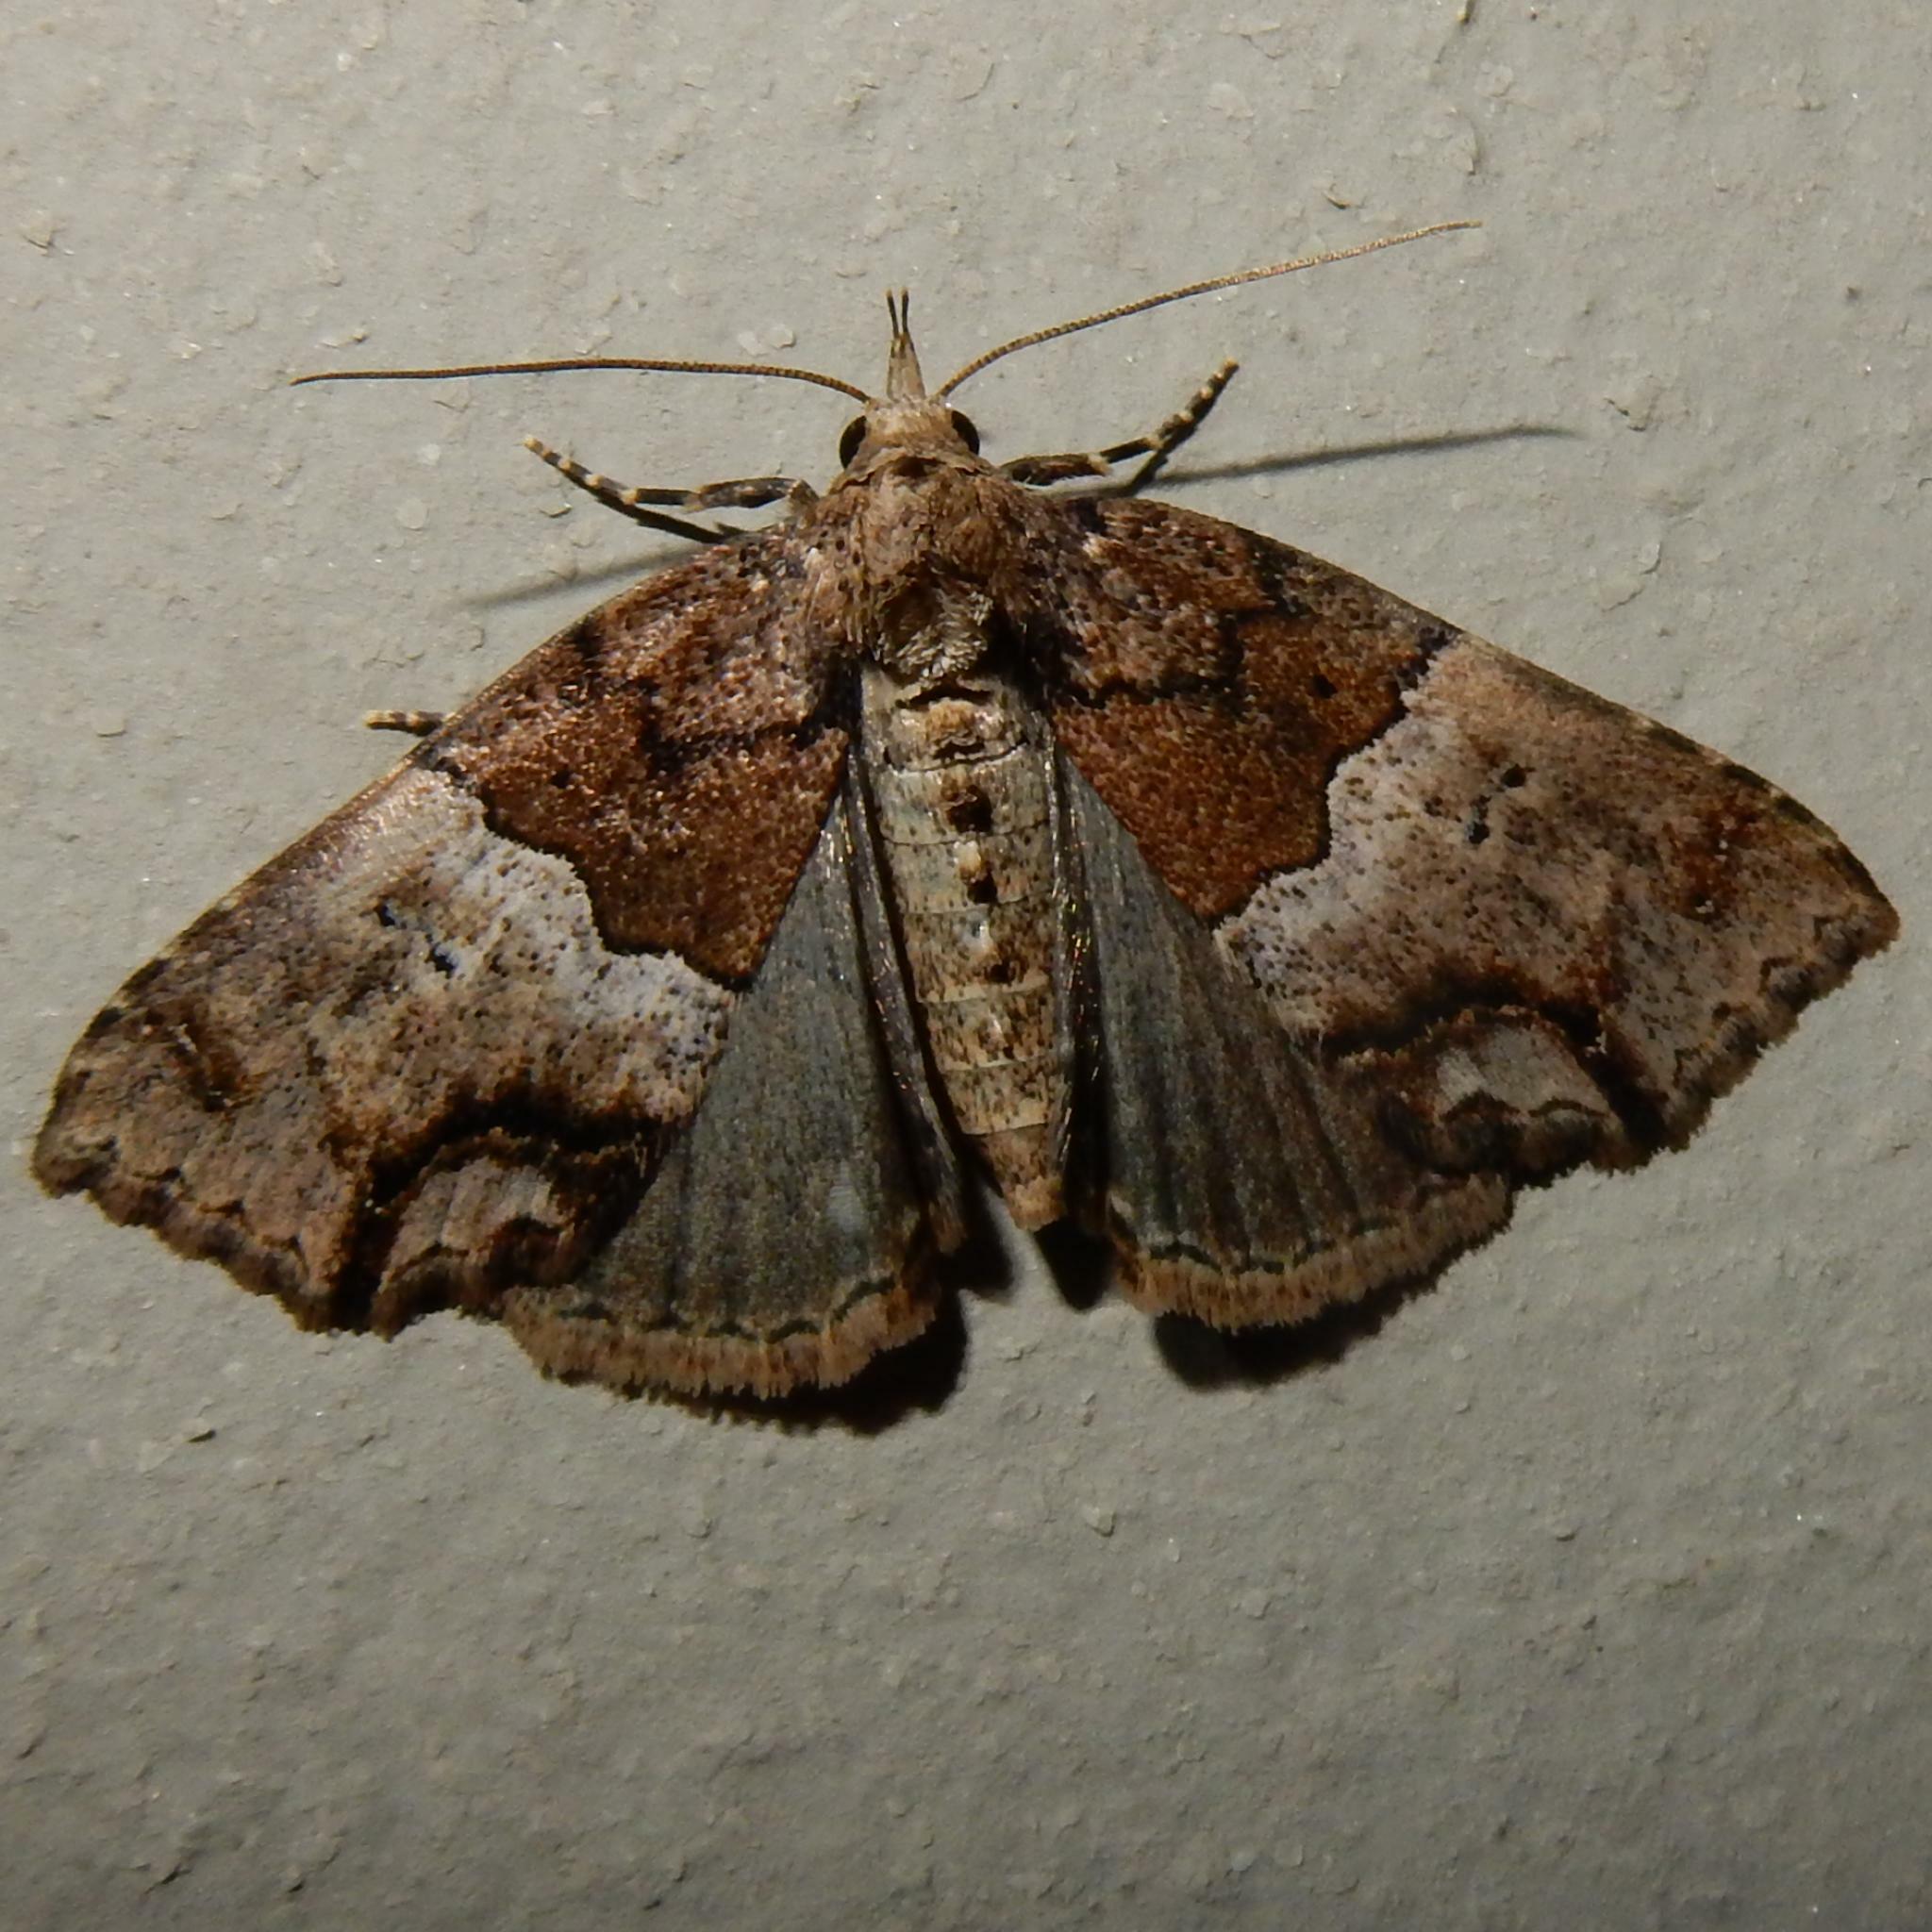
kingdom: Animalia
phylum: Arthropoda
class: Insecta
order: Lepidoptera
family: Erebidae
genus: Sarmatia
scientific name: Sarmatia interitalis
